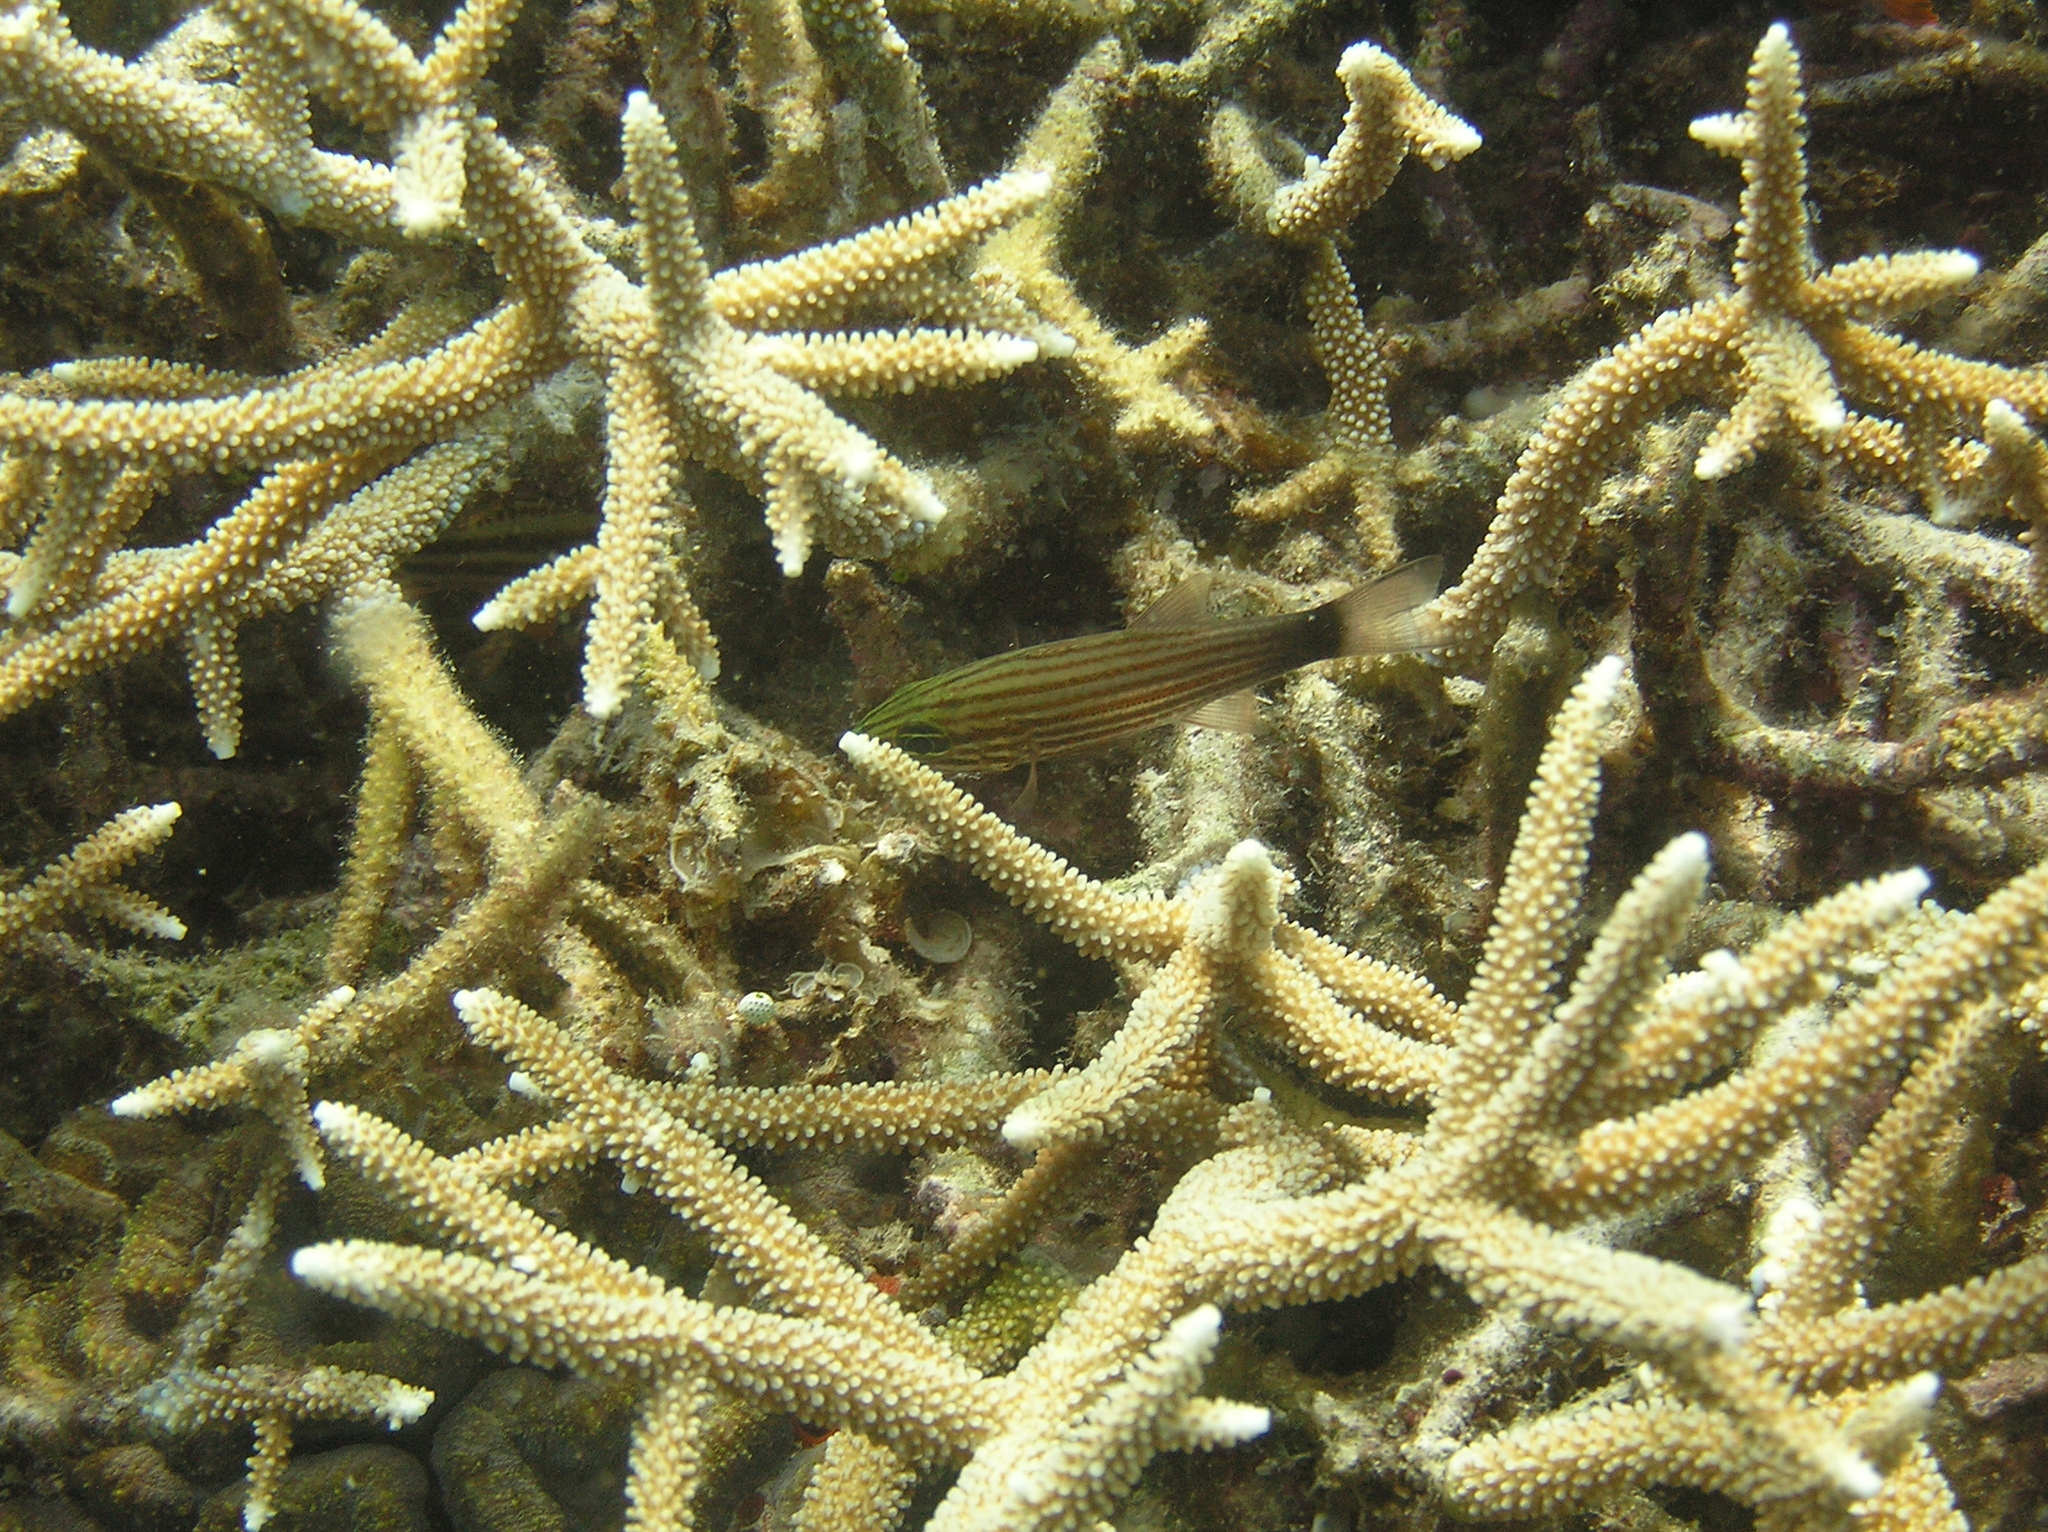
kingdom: Animalia
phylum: Chordata
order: Perciformes
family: Apogonidae
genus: Cheilodipterus
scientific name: Cheilodipterus artus
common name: Wolf cardinal
